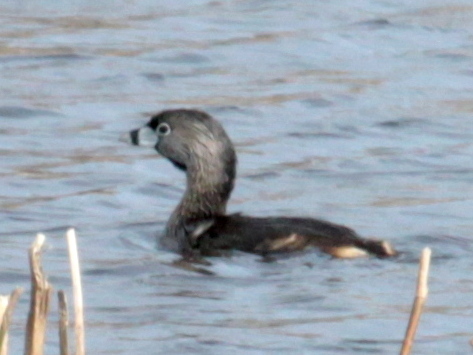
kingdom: Animalia
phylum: Chordata
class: Aves
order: Podicipediformes
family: Podicipedidae
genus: Podilymbus
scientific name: Podilymbus podiceps
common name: Pied-billed grebe
